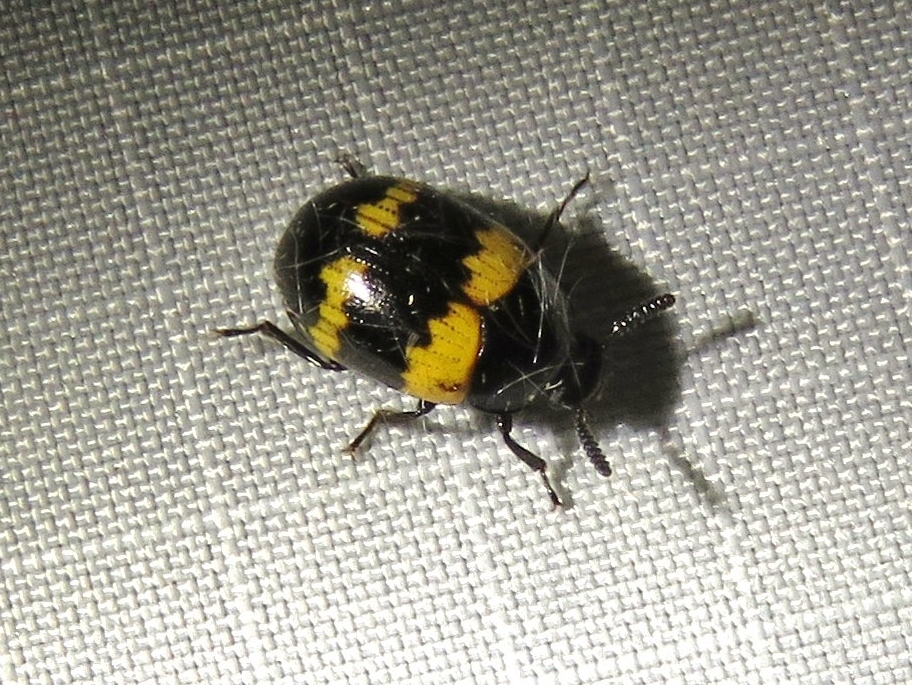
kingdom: Animalia
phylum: Arthropoda
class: Insecta
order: Coleoptera
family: Tenebrionidae
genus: Diaperis
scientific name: Diaperis boleti
